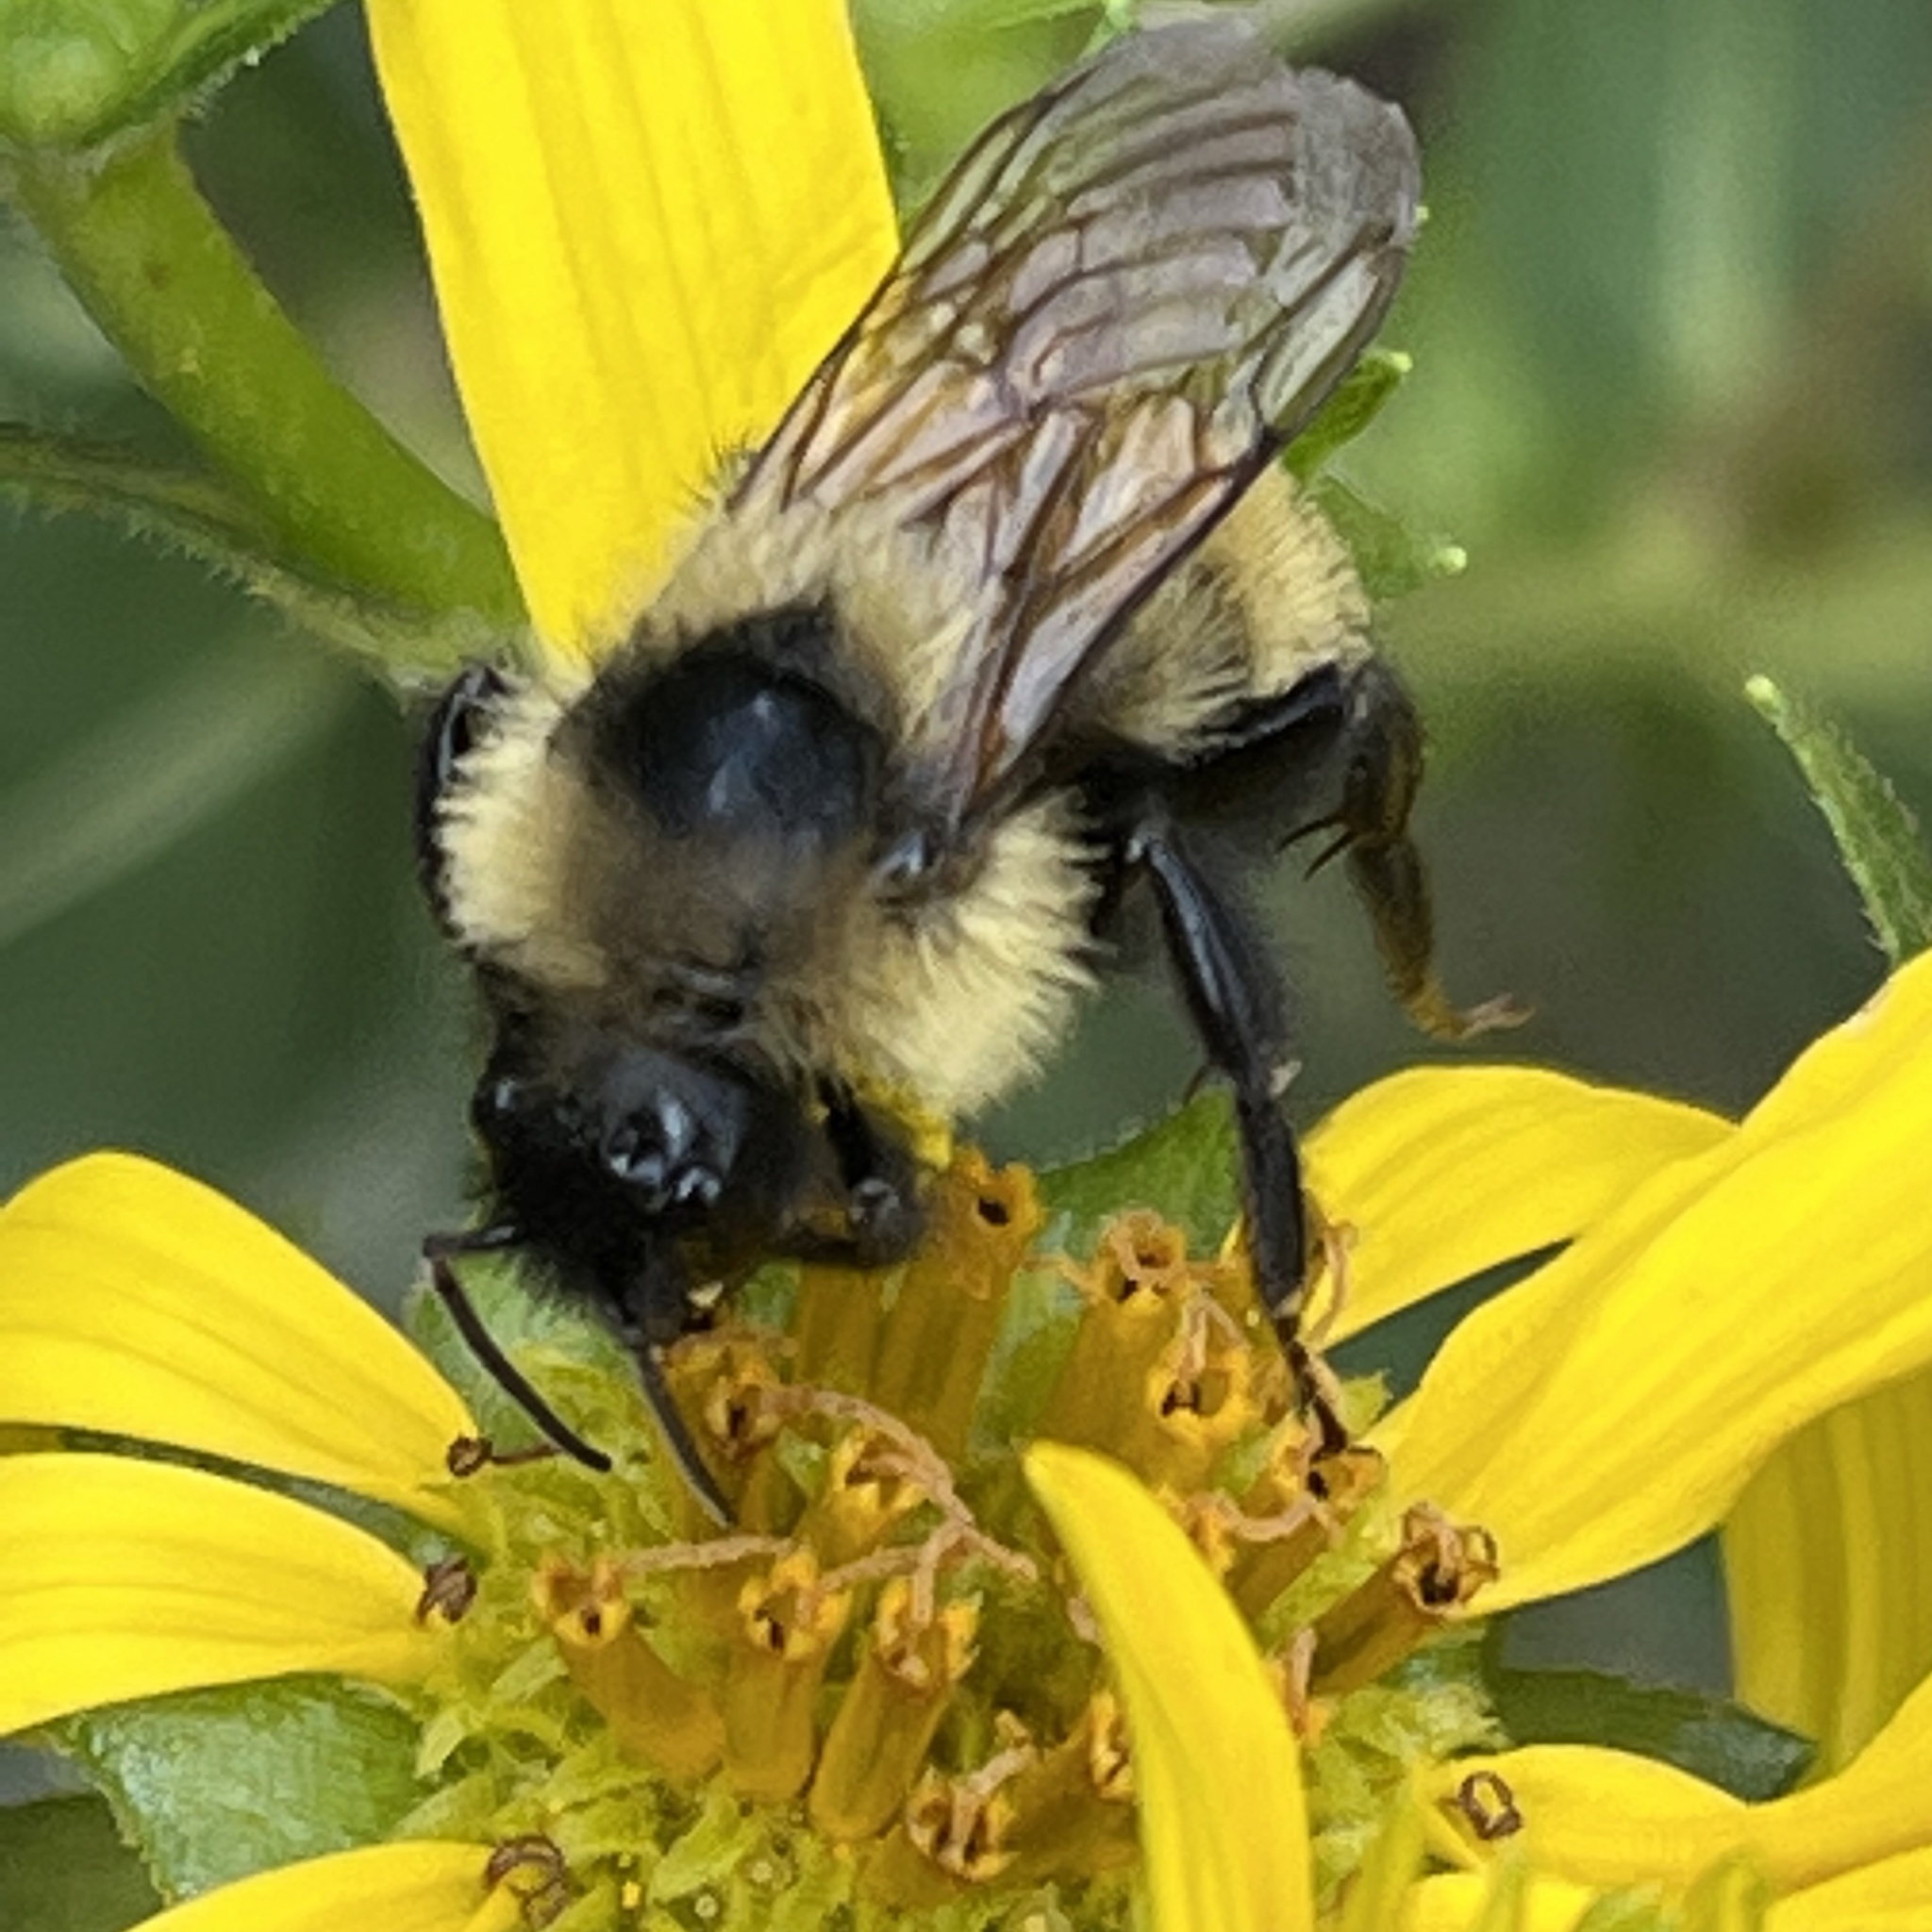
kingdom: Animalia
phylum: Arthropoda
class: Insecta
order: Hymenoptera
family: Apidae
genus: Bombus
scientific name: Bombus citrinus
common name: Lemon cuckoo bumble bee
